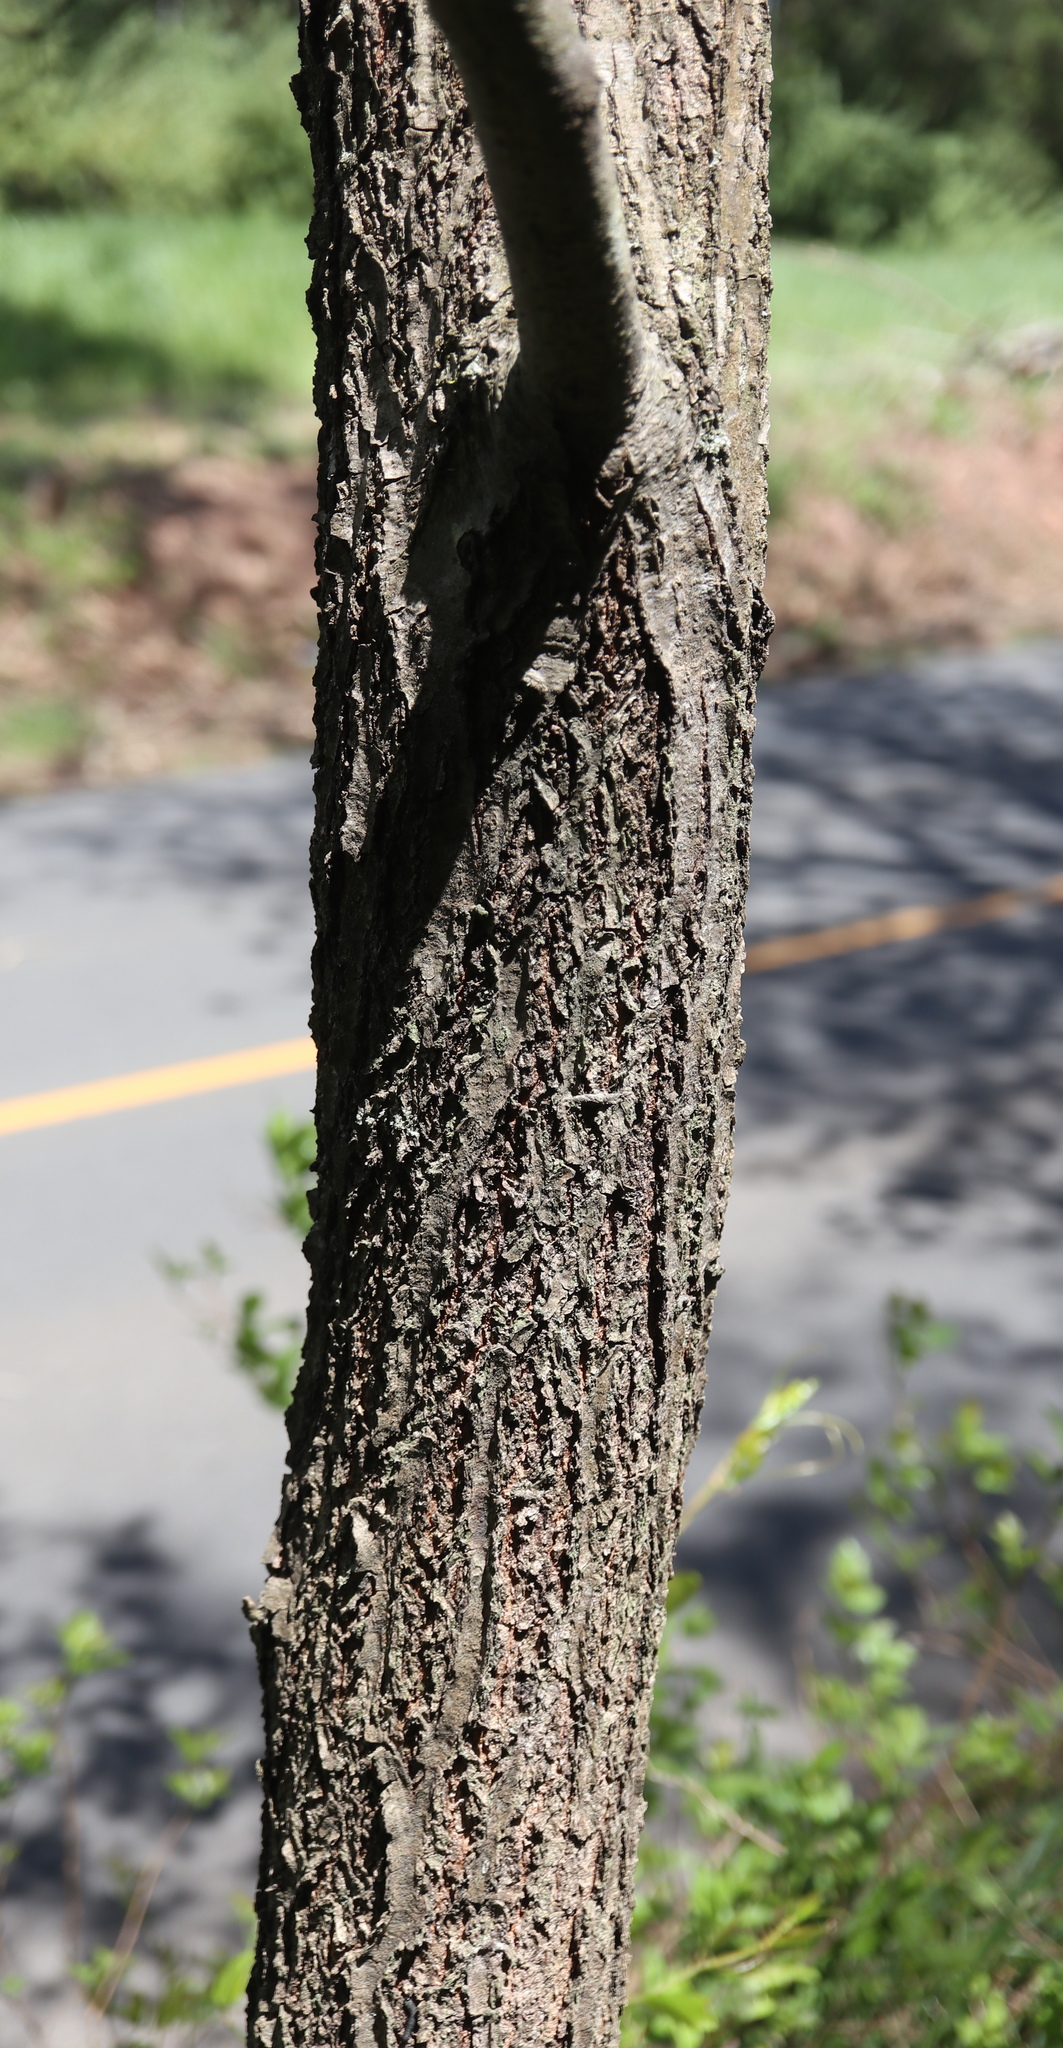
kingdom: Plantae
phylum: Tracheophyta
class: Magnoliopsida
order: Fagales
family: Fagaceae
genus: Quercus
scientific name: Quercus imbricaria
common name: Shingle oak
